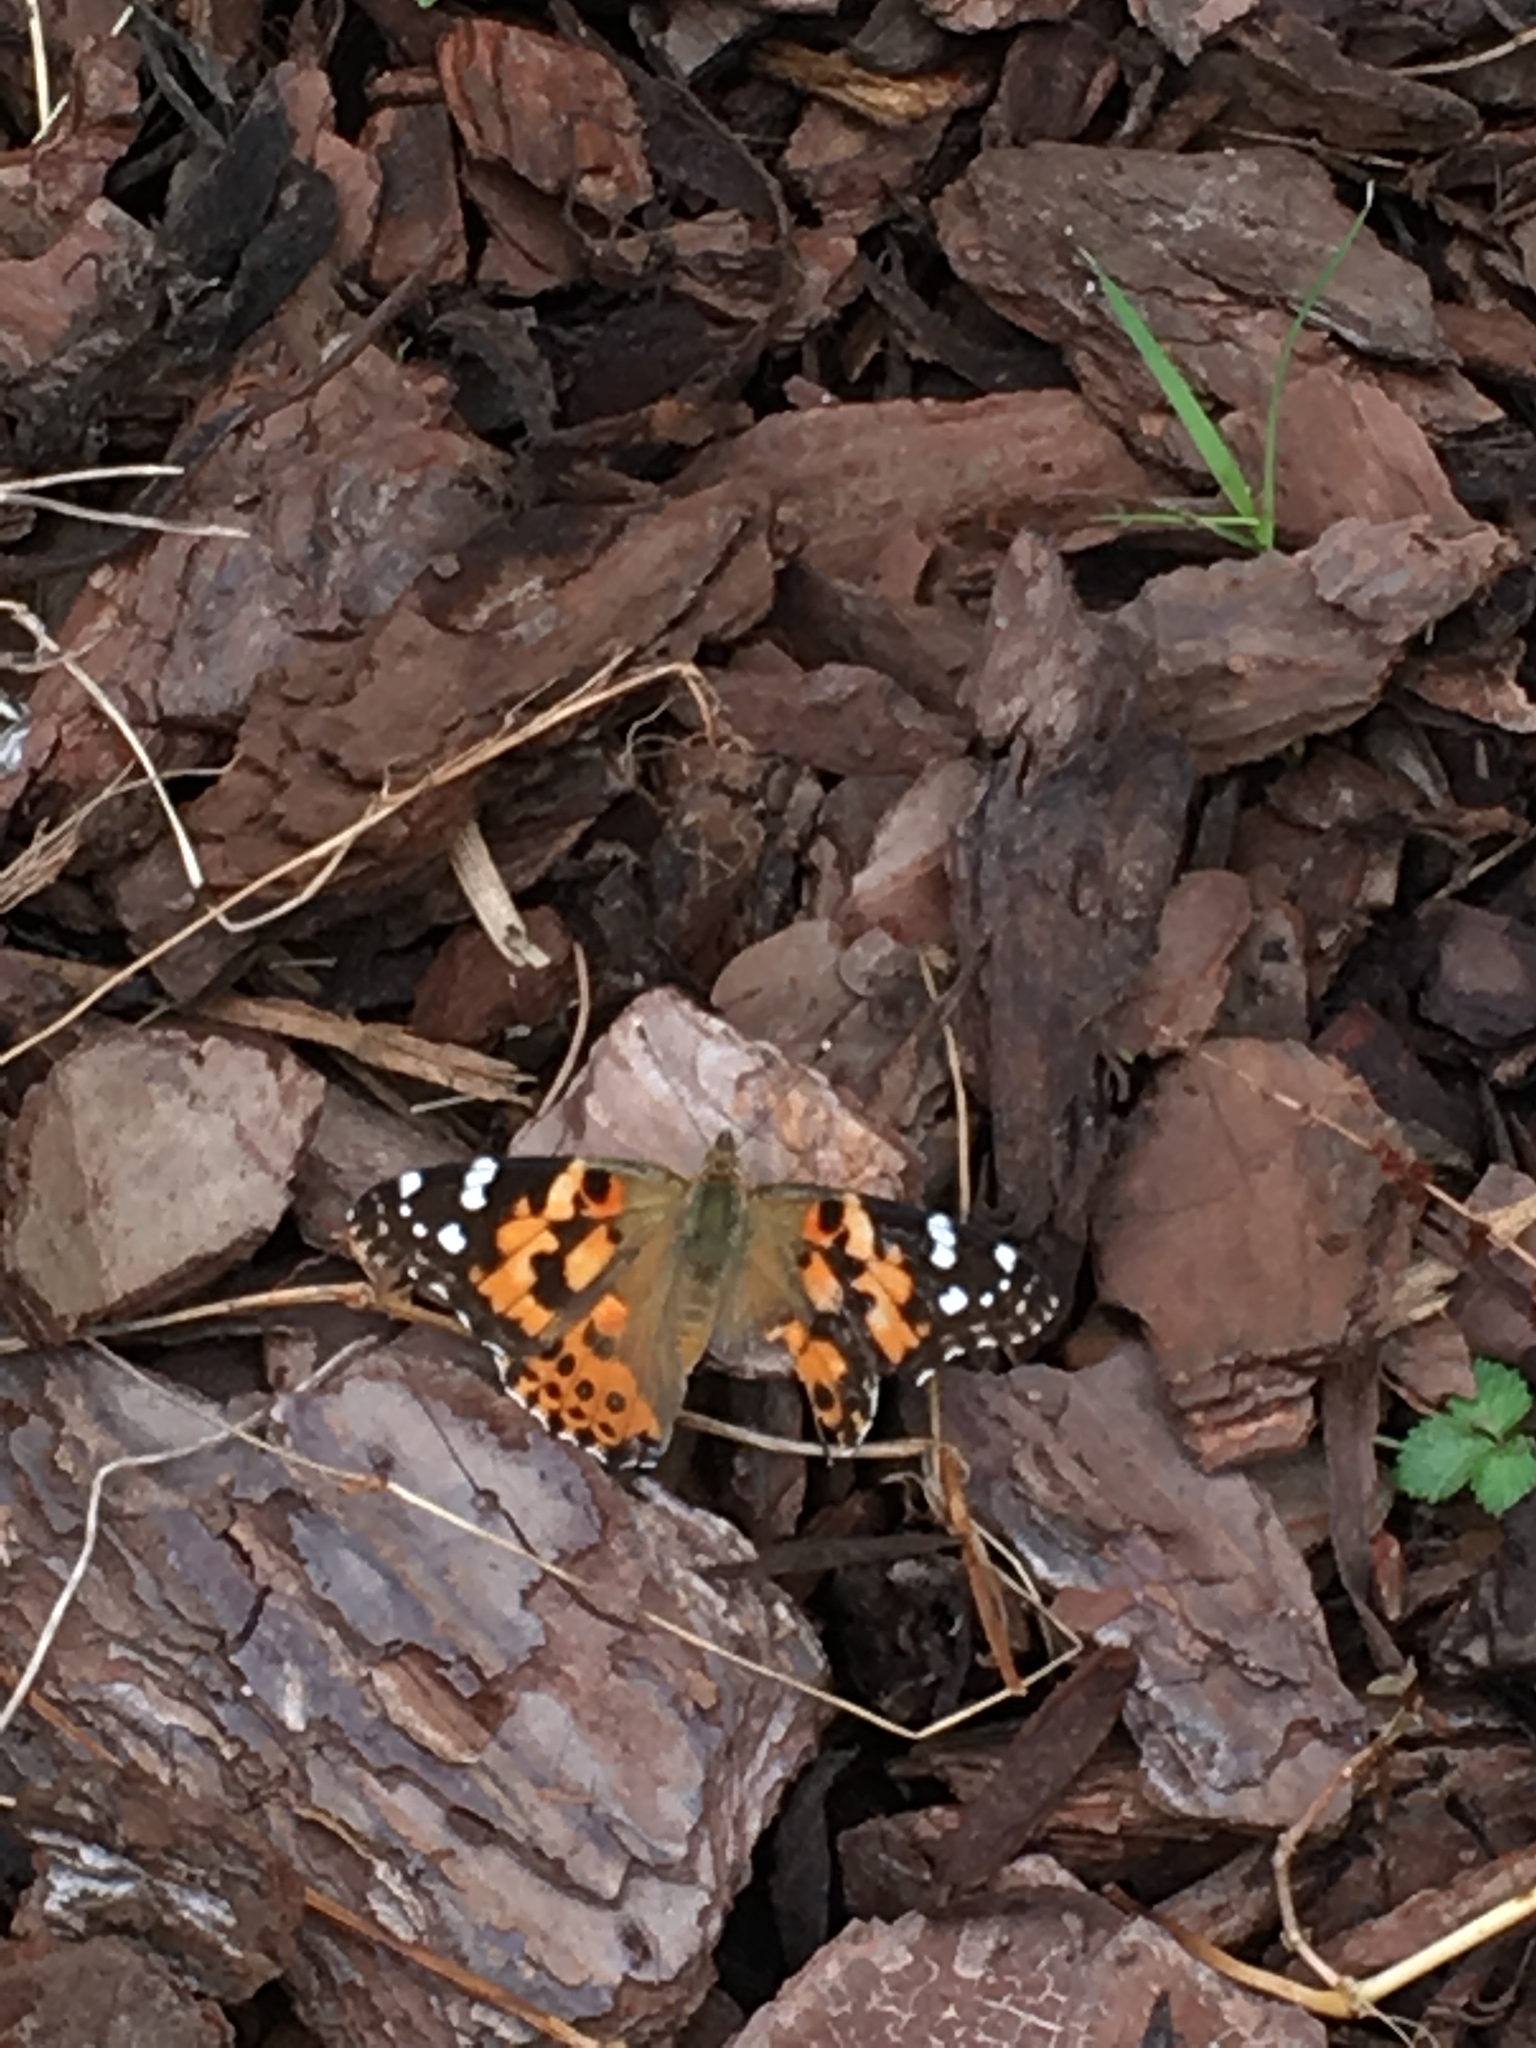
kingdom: Animalia
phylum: Arthropoda
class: Insecta
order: Lepidoptera
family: Nymphalidae
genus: Vanessa
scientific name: Vanessa cardui
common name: Painted lady
